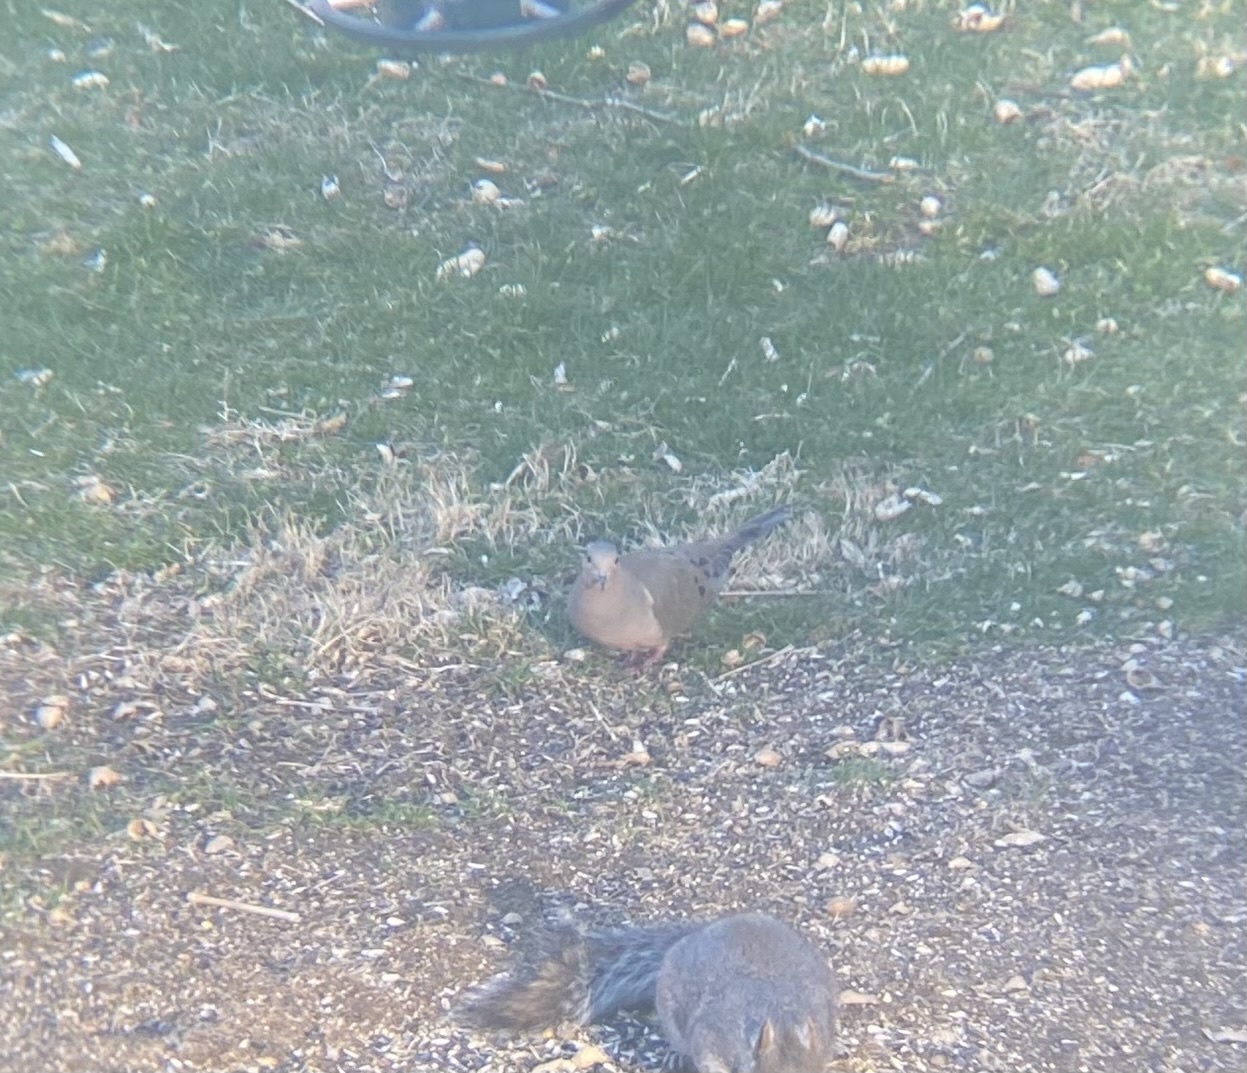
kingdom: Animalia
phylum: Chordata
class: Aves
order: Columbiformes
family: Columbidae
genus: Zenaida
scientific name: Zenaida macroura
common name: Mourning dove
